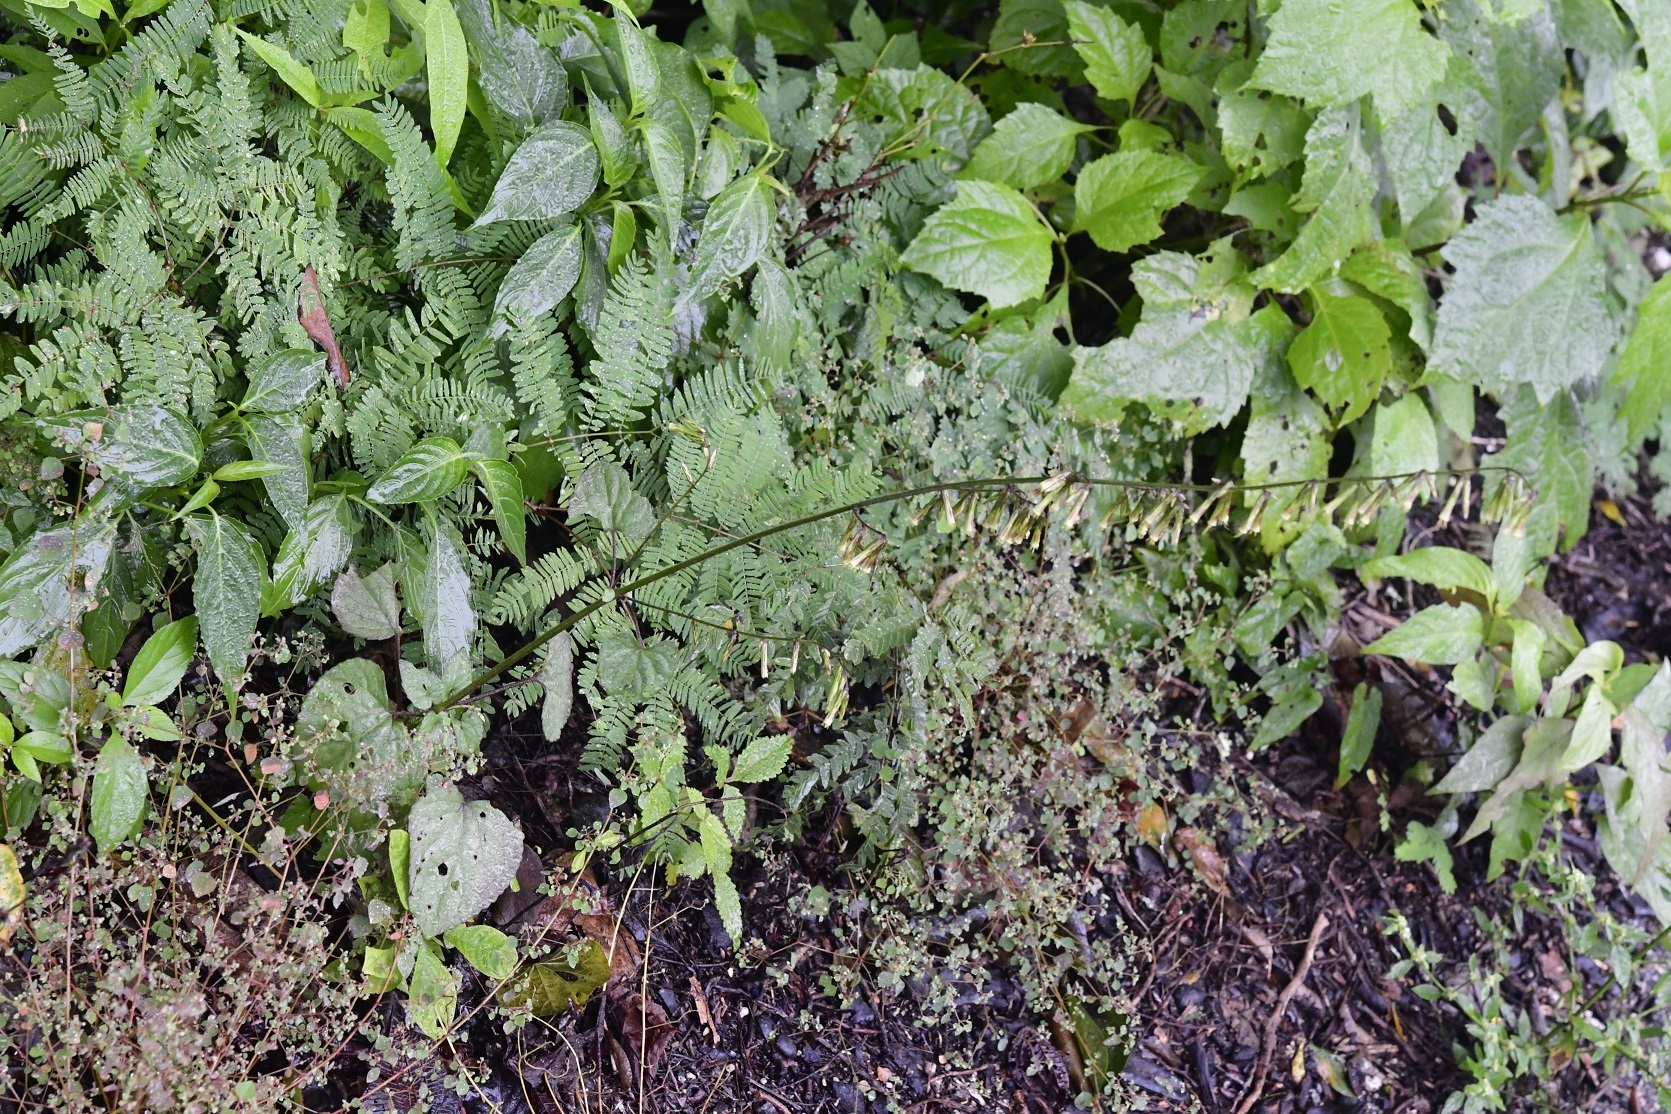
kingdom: Plantae
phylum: Tracheophyta
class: Magnoliopsida
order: Asterales
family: Asteraceae
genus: Carminatia
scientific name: Carminatia recondita
